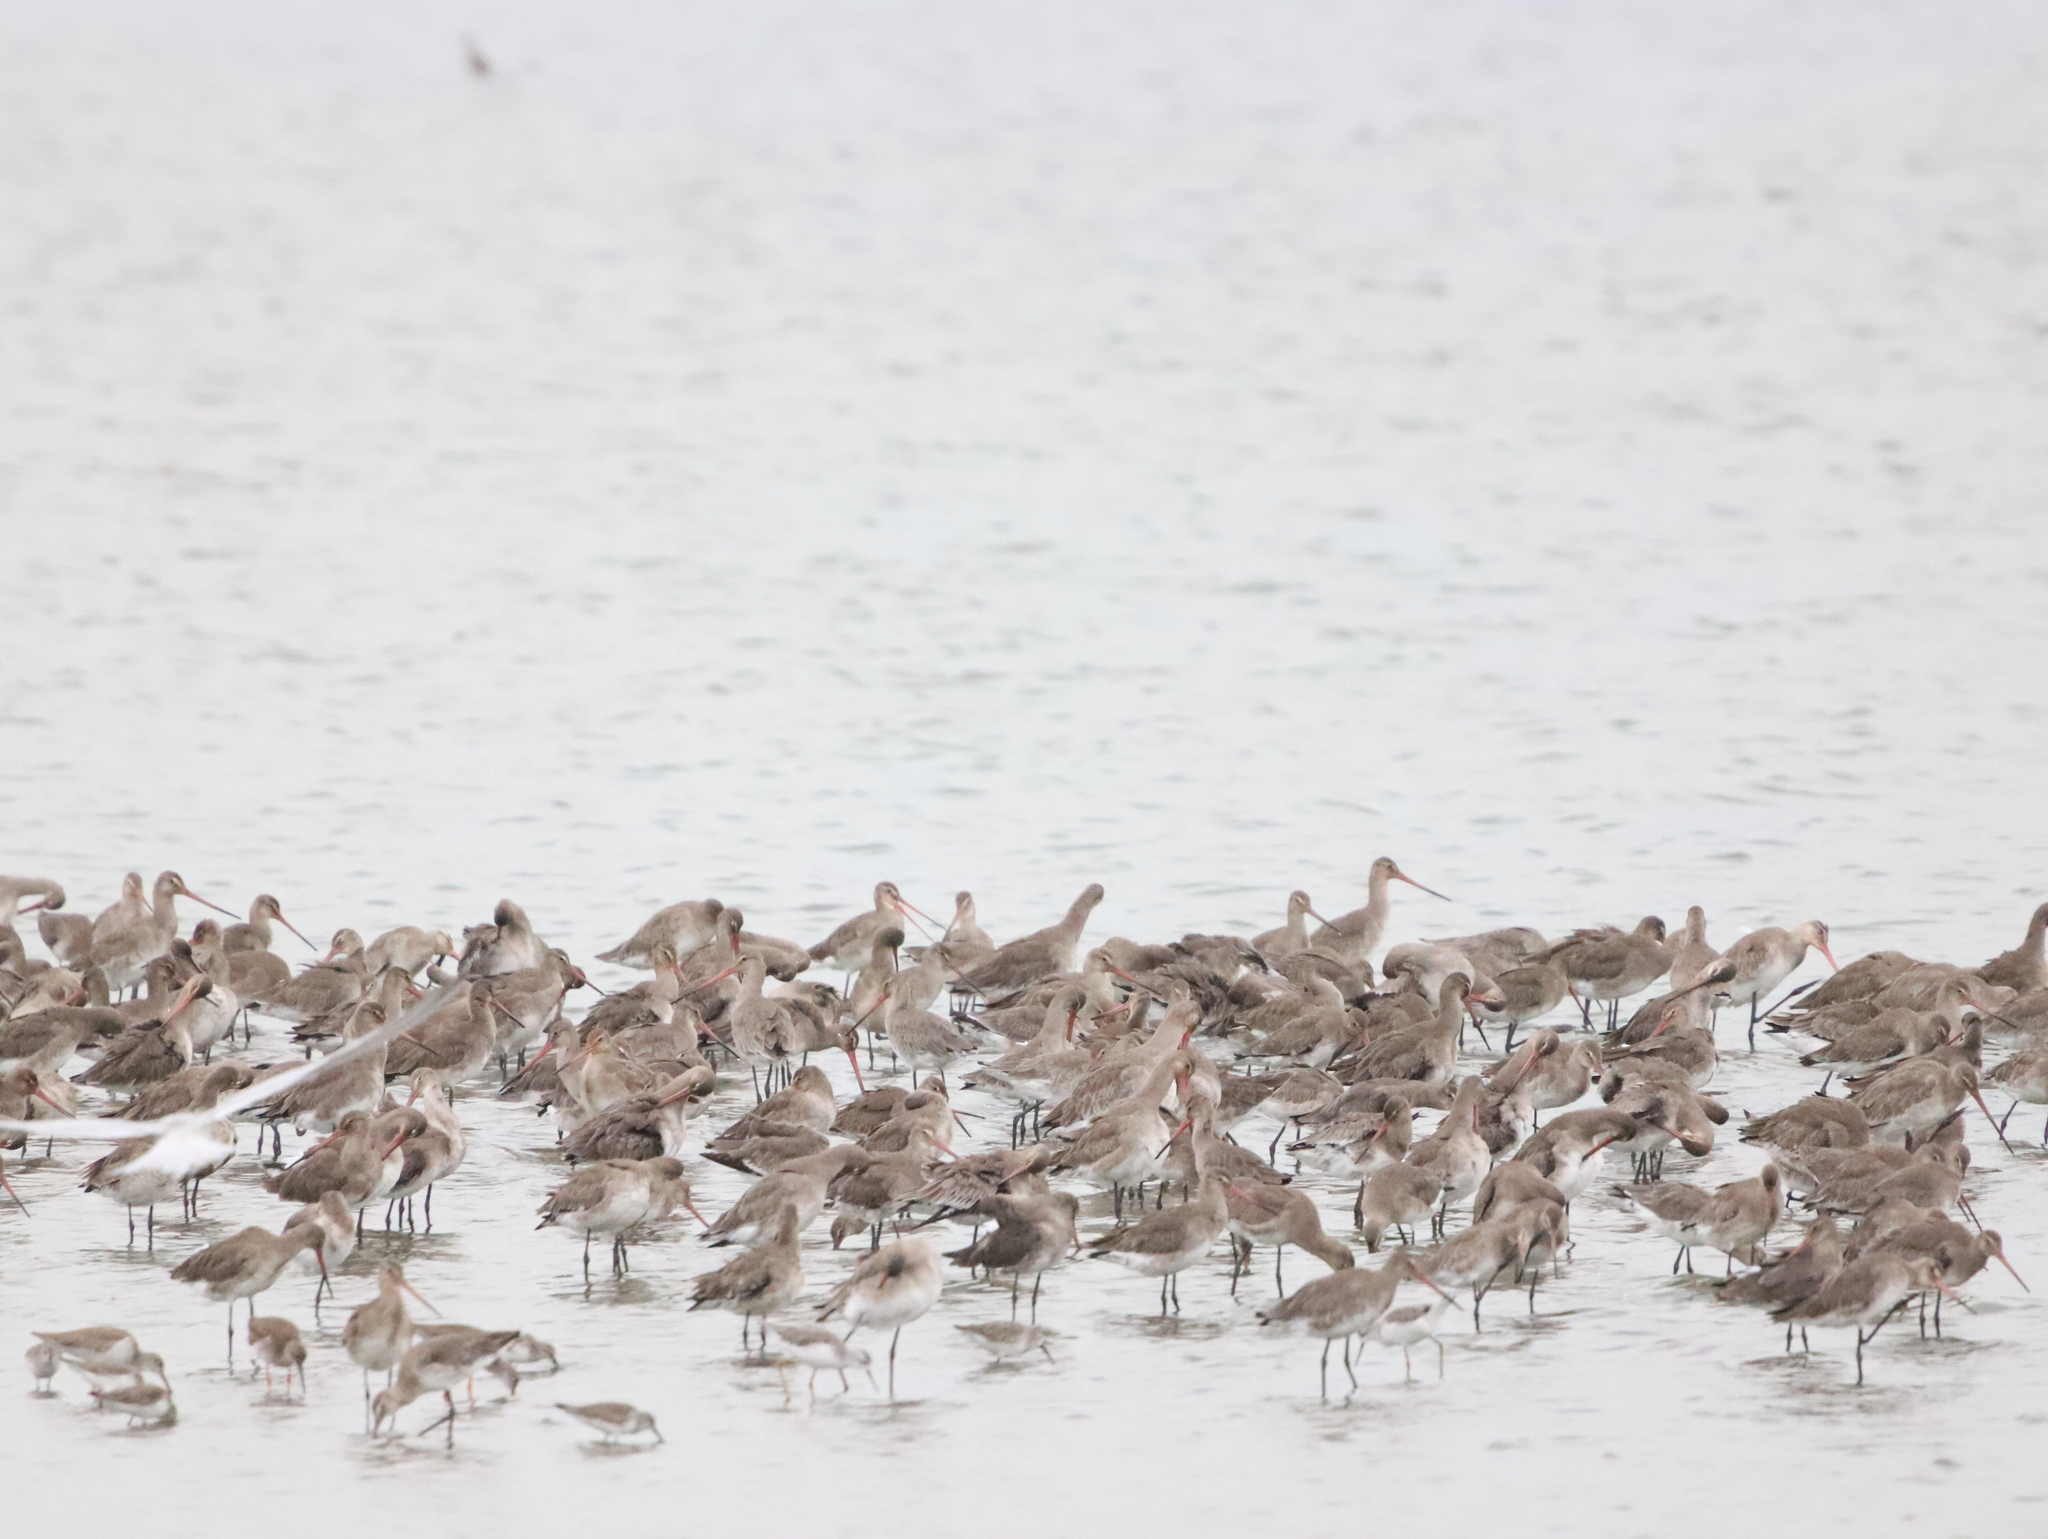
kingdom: Animalia
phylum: Chordata
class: Aves
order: Charadriiformes
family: Scolopacidae
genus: Limosa
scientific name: Limosa limosa
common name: Black-tailed godwit
